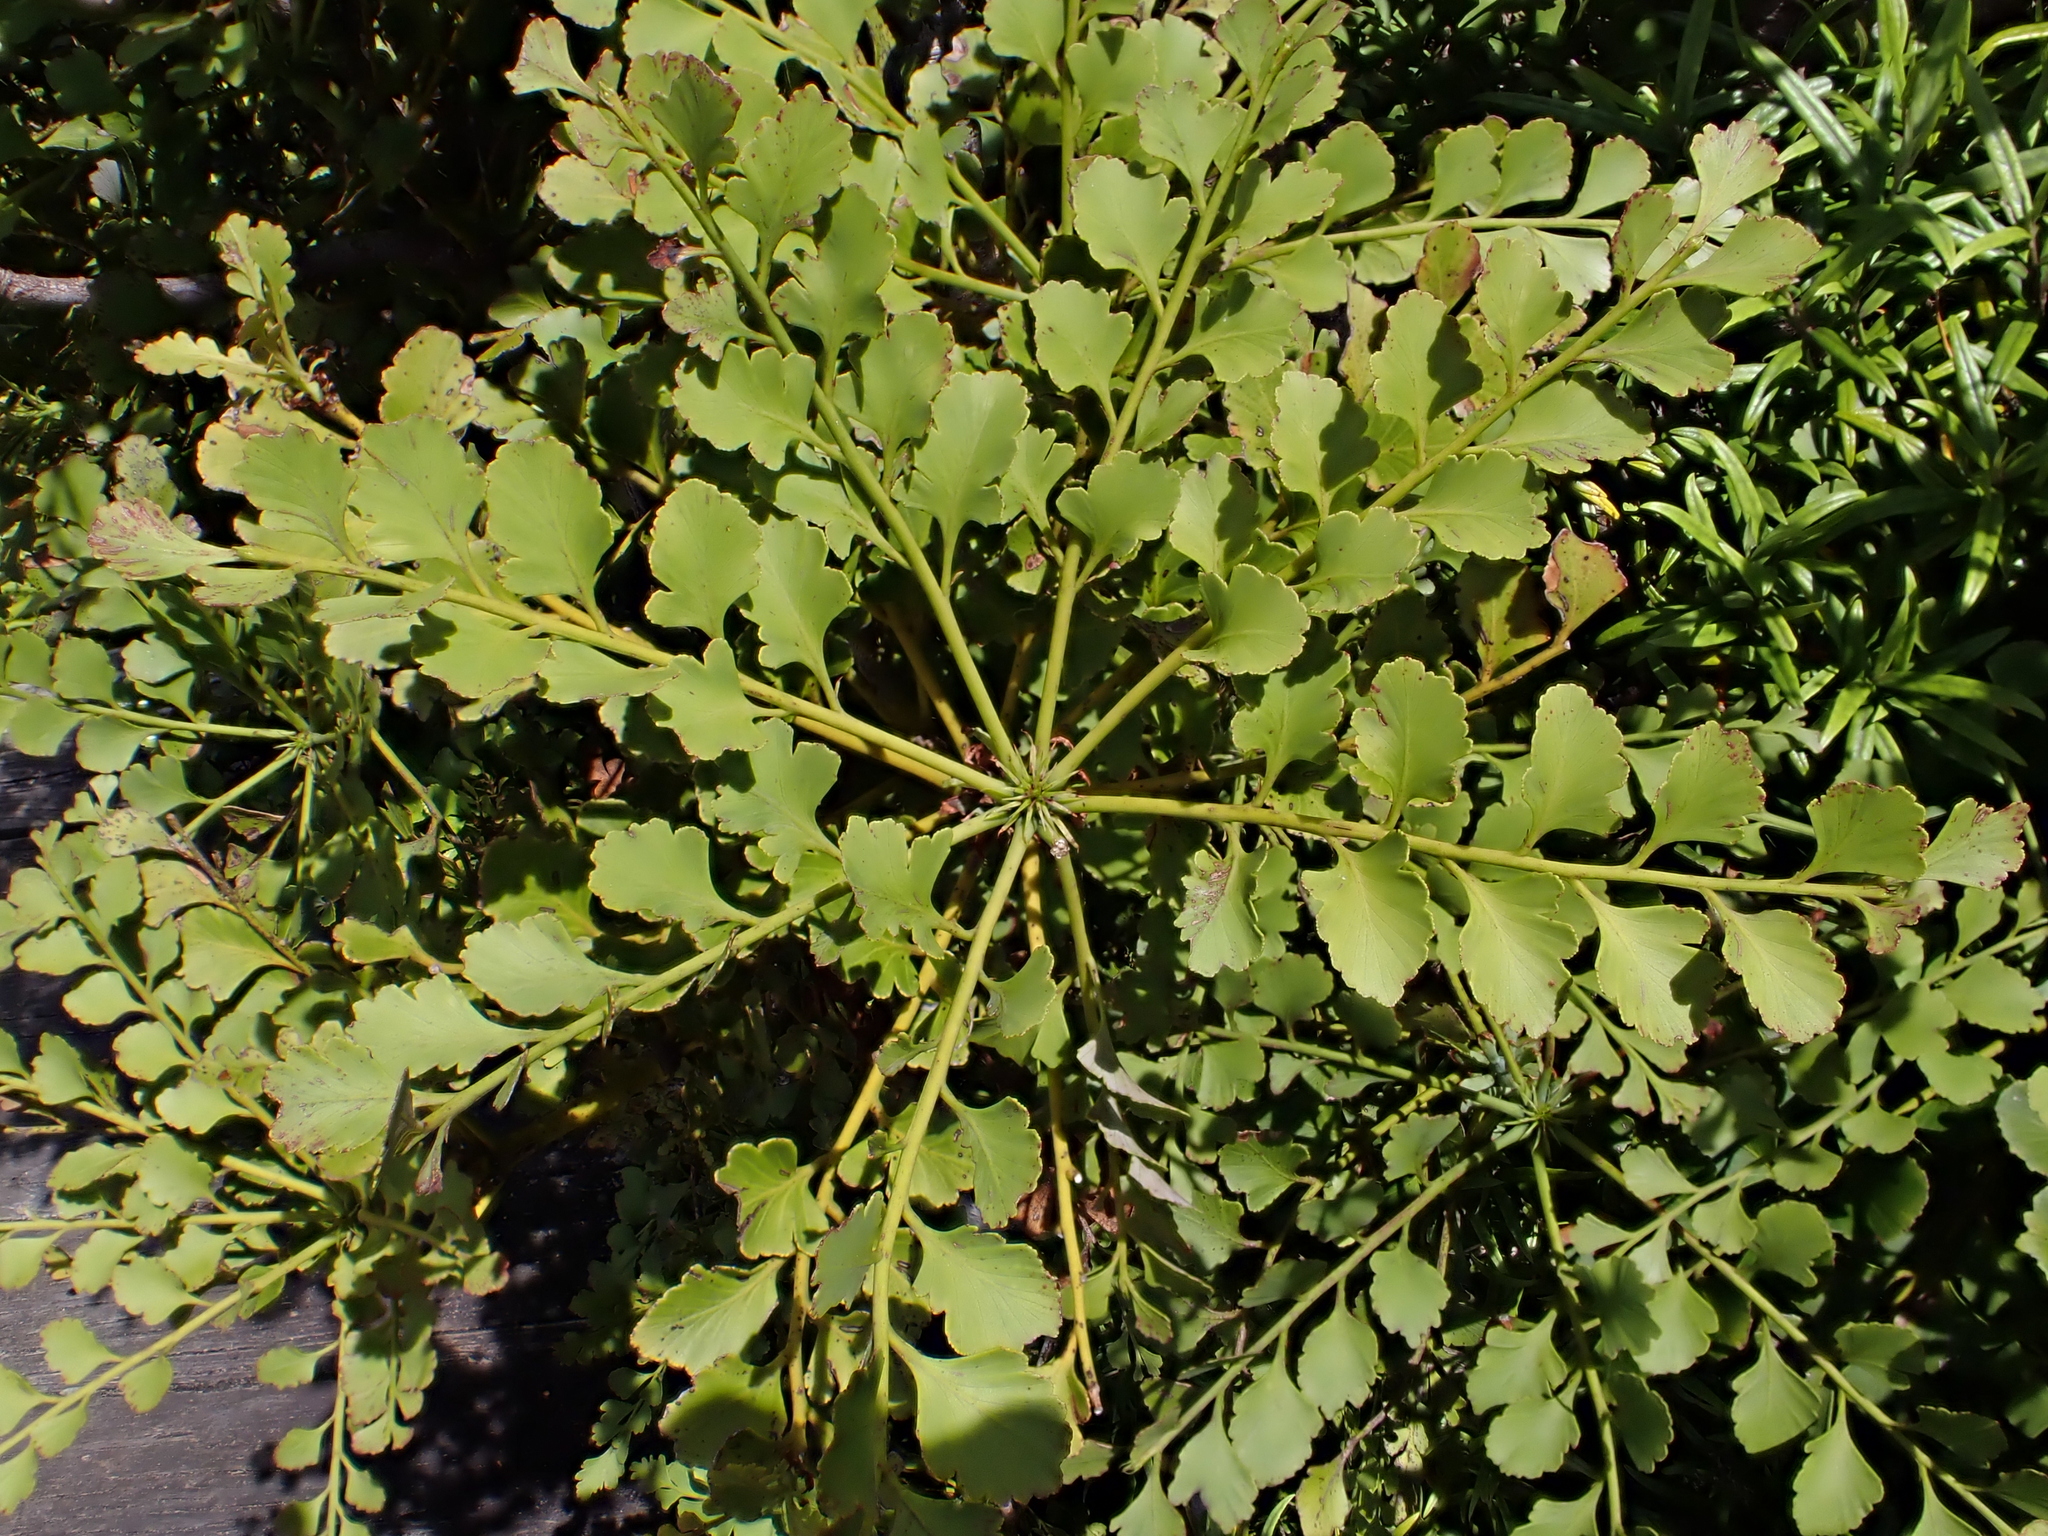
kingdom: Plantae
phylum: Tracheophyta
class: Pinopsida
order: Pinales
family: Phyllocladaceae
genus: Phyllocladus
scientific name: Phyllocladus toatoa
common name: Celery-top pine
